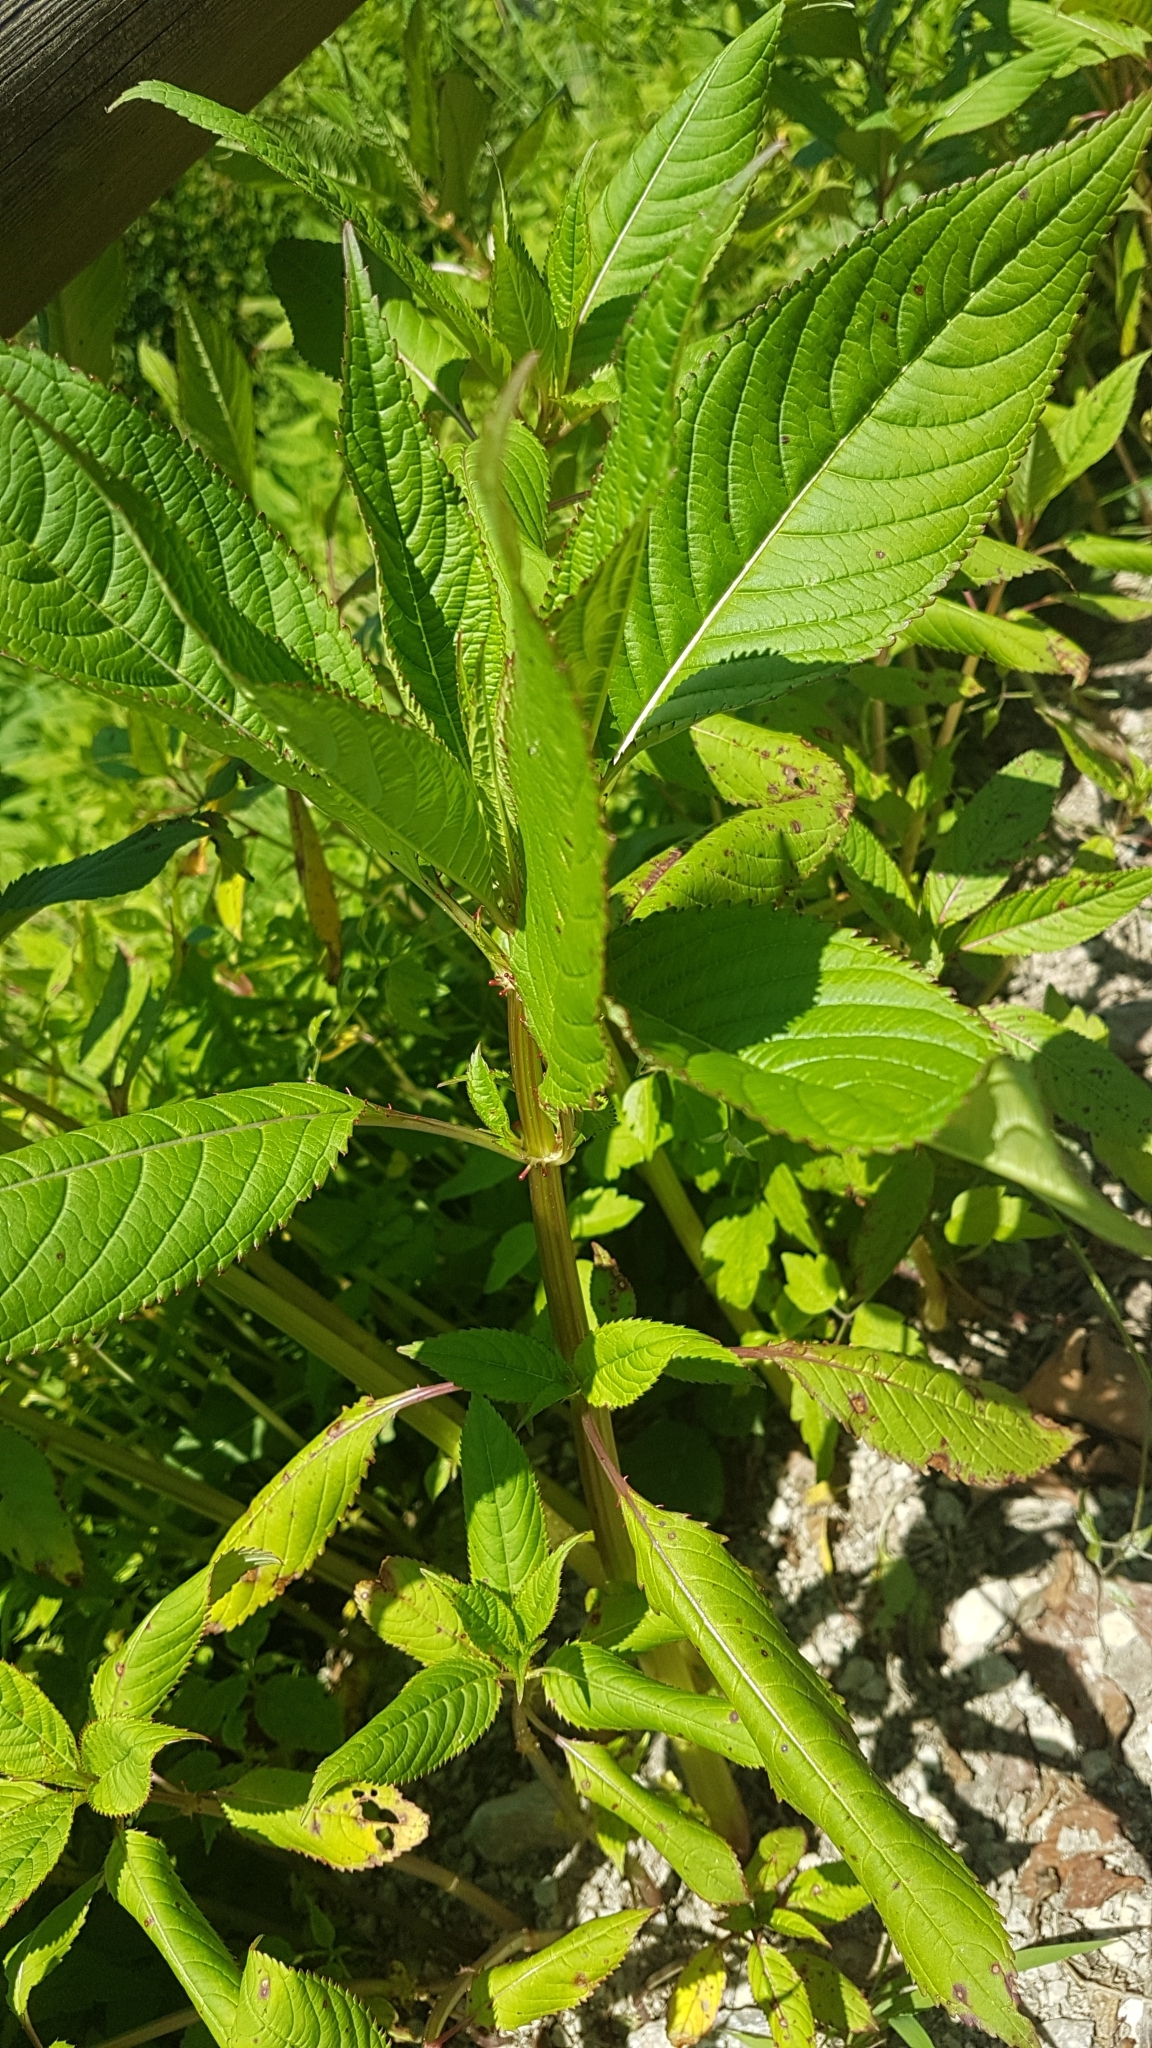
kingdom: Plantae
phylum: Tracheophyta
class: Magnoliopsida
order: Ericales
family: Balsaminaceae
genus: Impatiens
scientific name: Impatiens glandulifera
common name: Himalayan balsam
